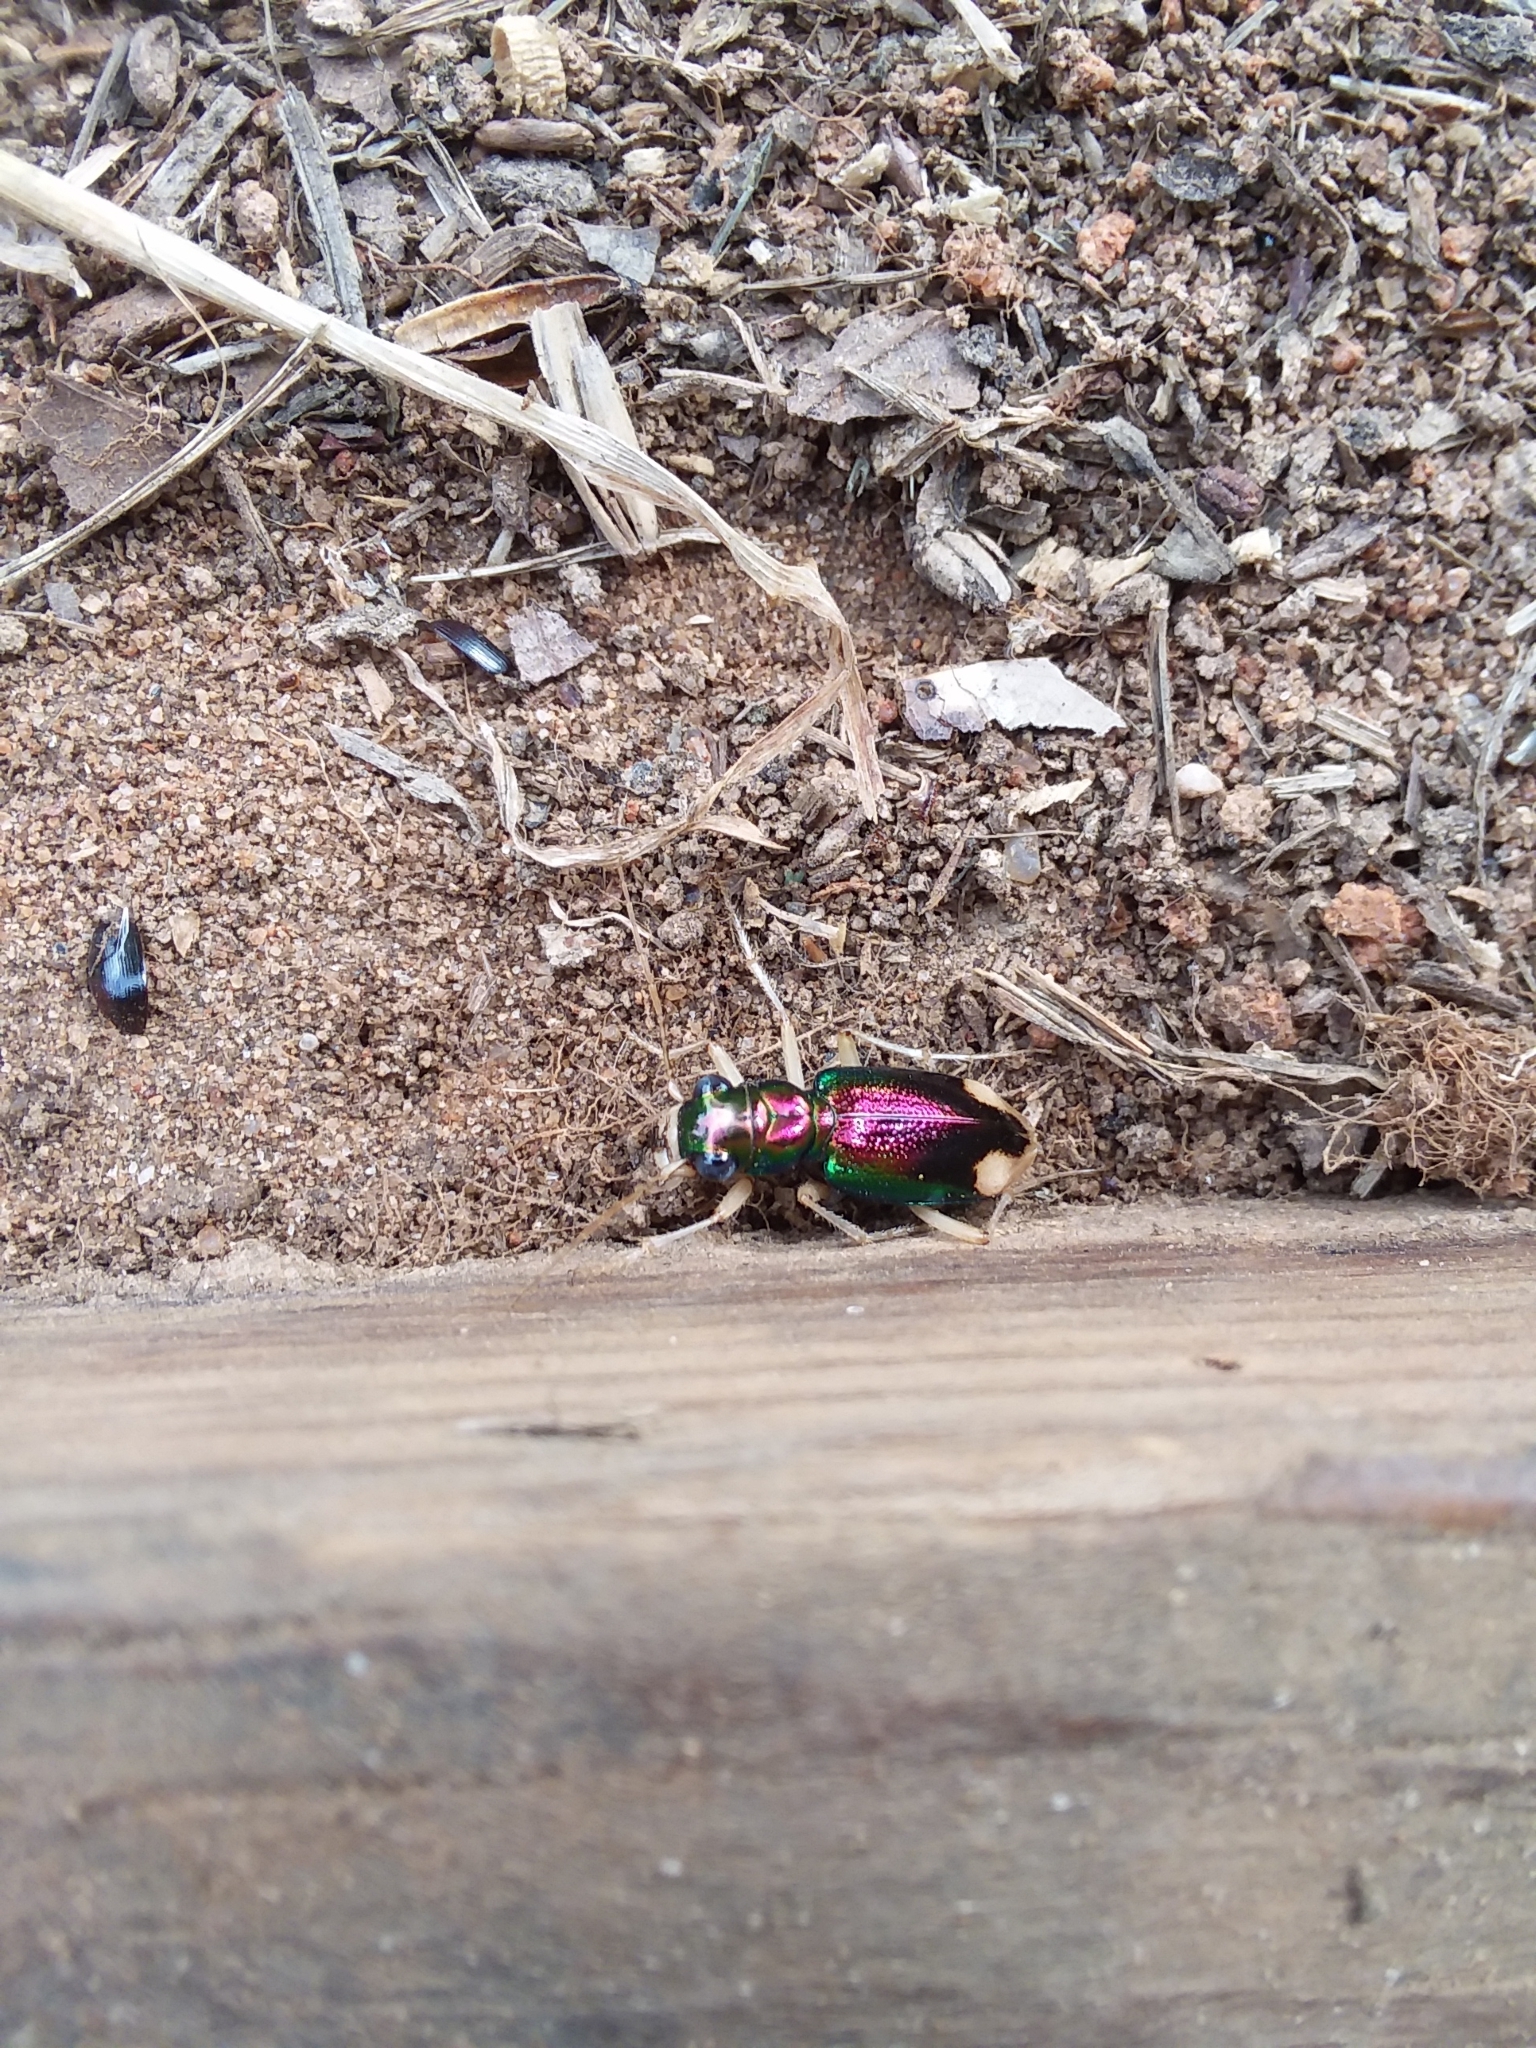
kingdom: Animalia
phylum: Arthropoda
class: Insecta
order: Coleoptera
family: Carabidae
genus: Tetracha
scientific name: Tetracha carolina
